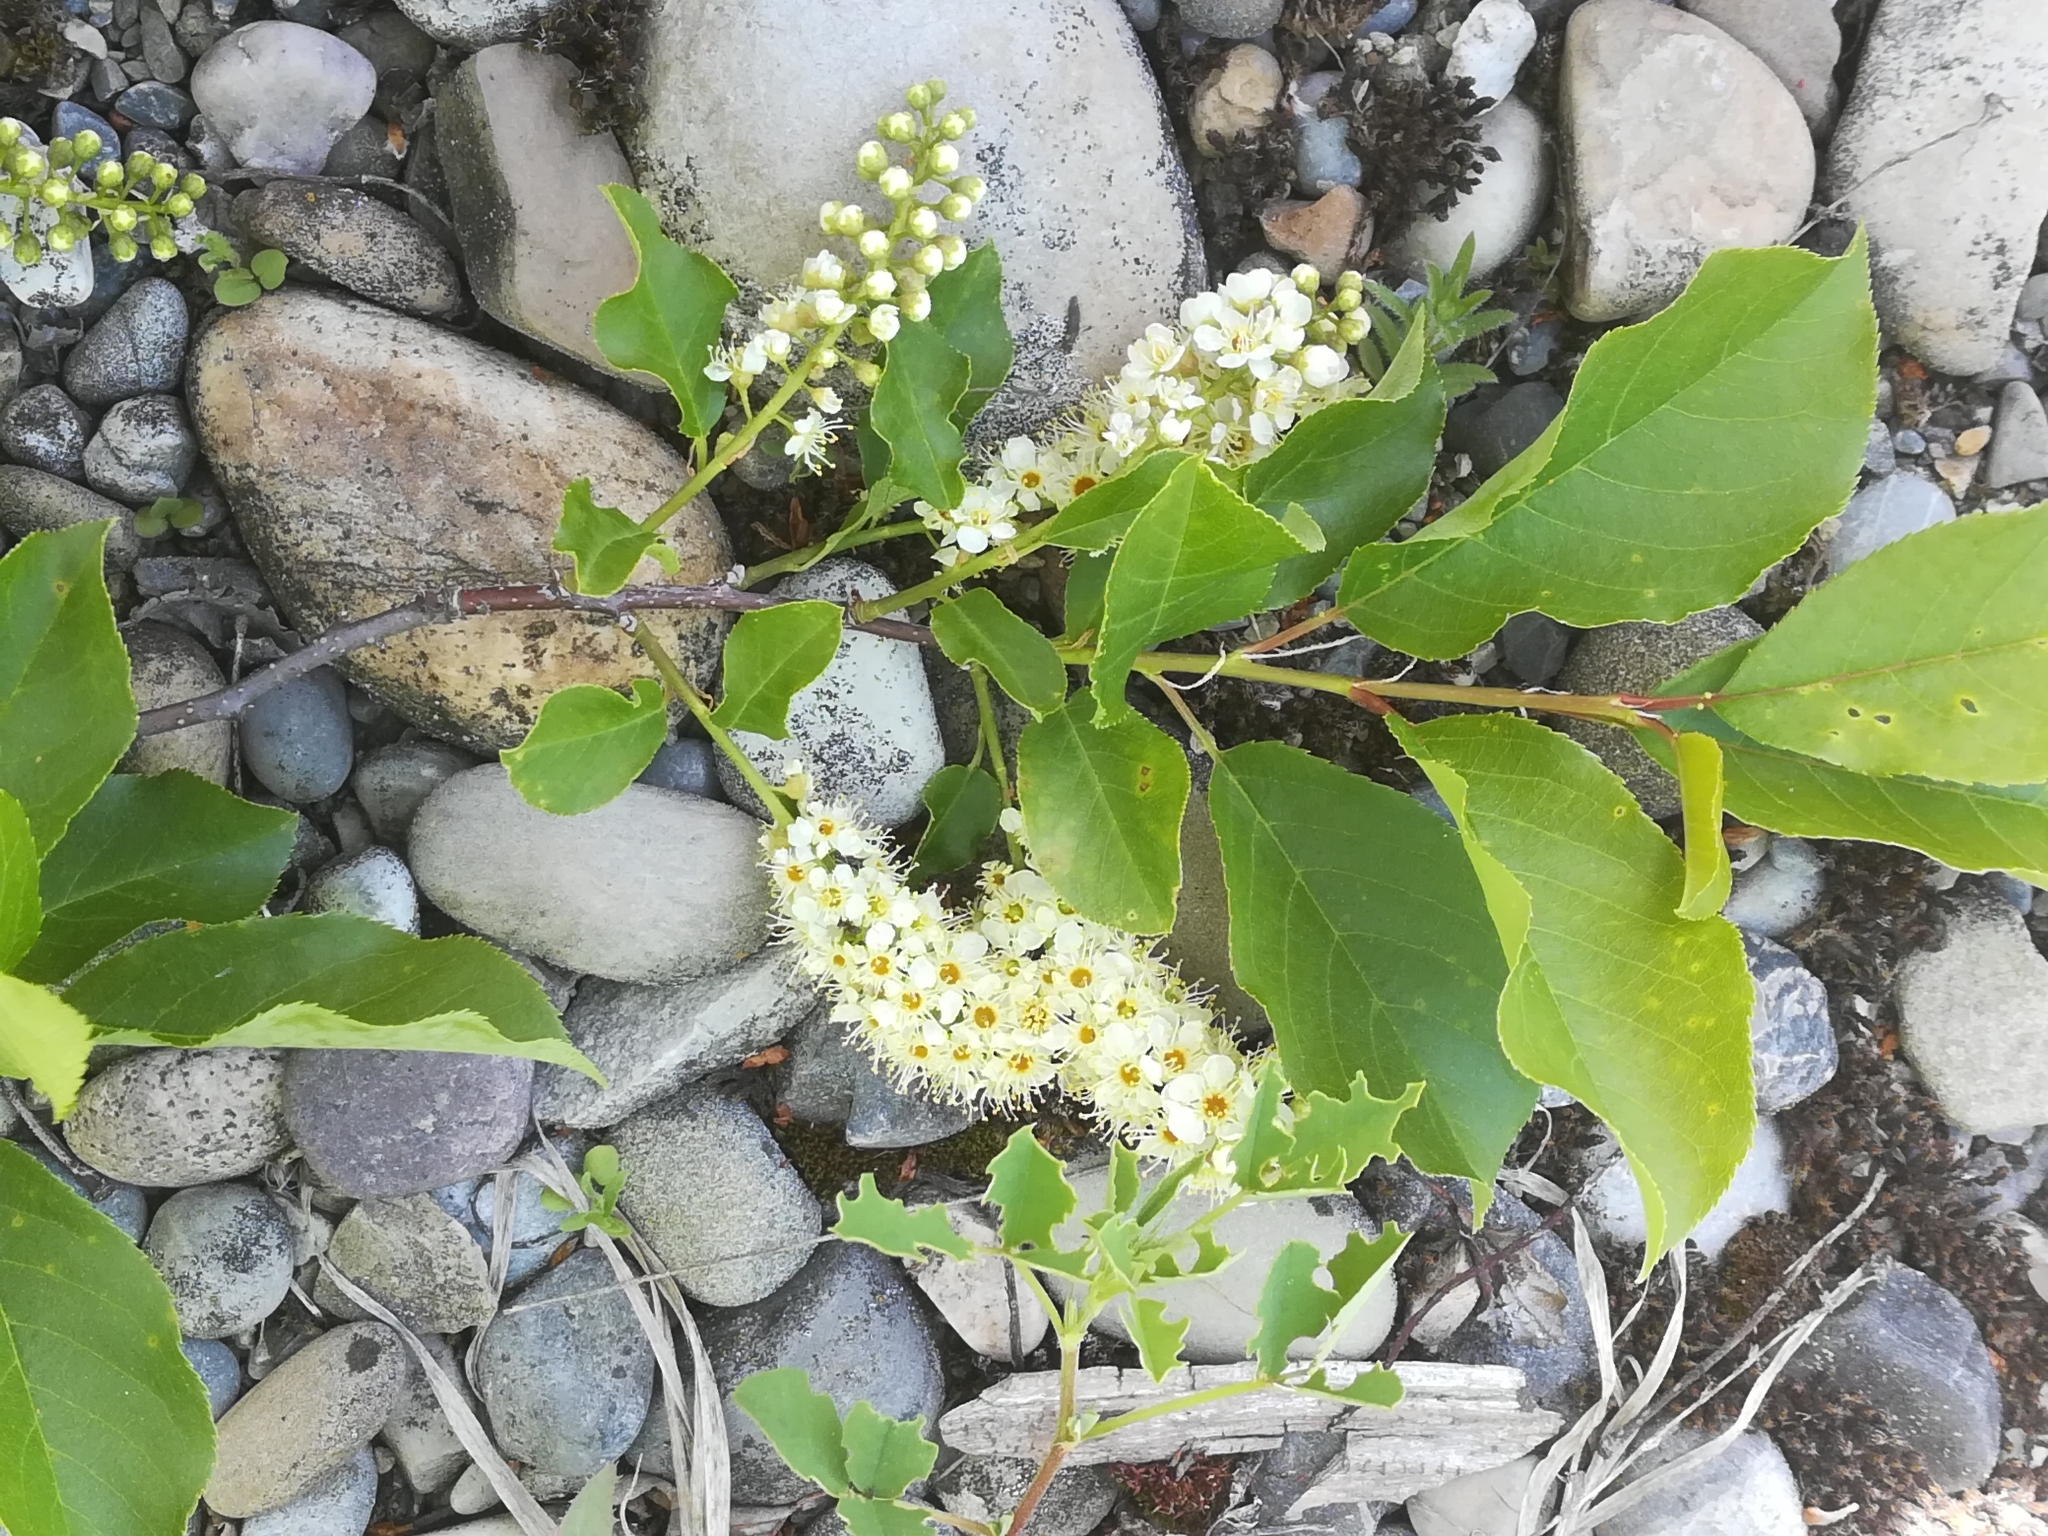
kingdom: Plantae
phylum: Tracheophyta
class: Magnoliopsida
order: Rosales
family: Rosaceae
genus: Prunus
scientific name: Prunus virginiana
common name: Chokecherry
